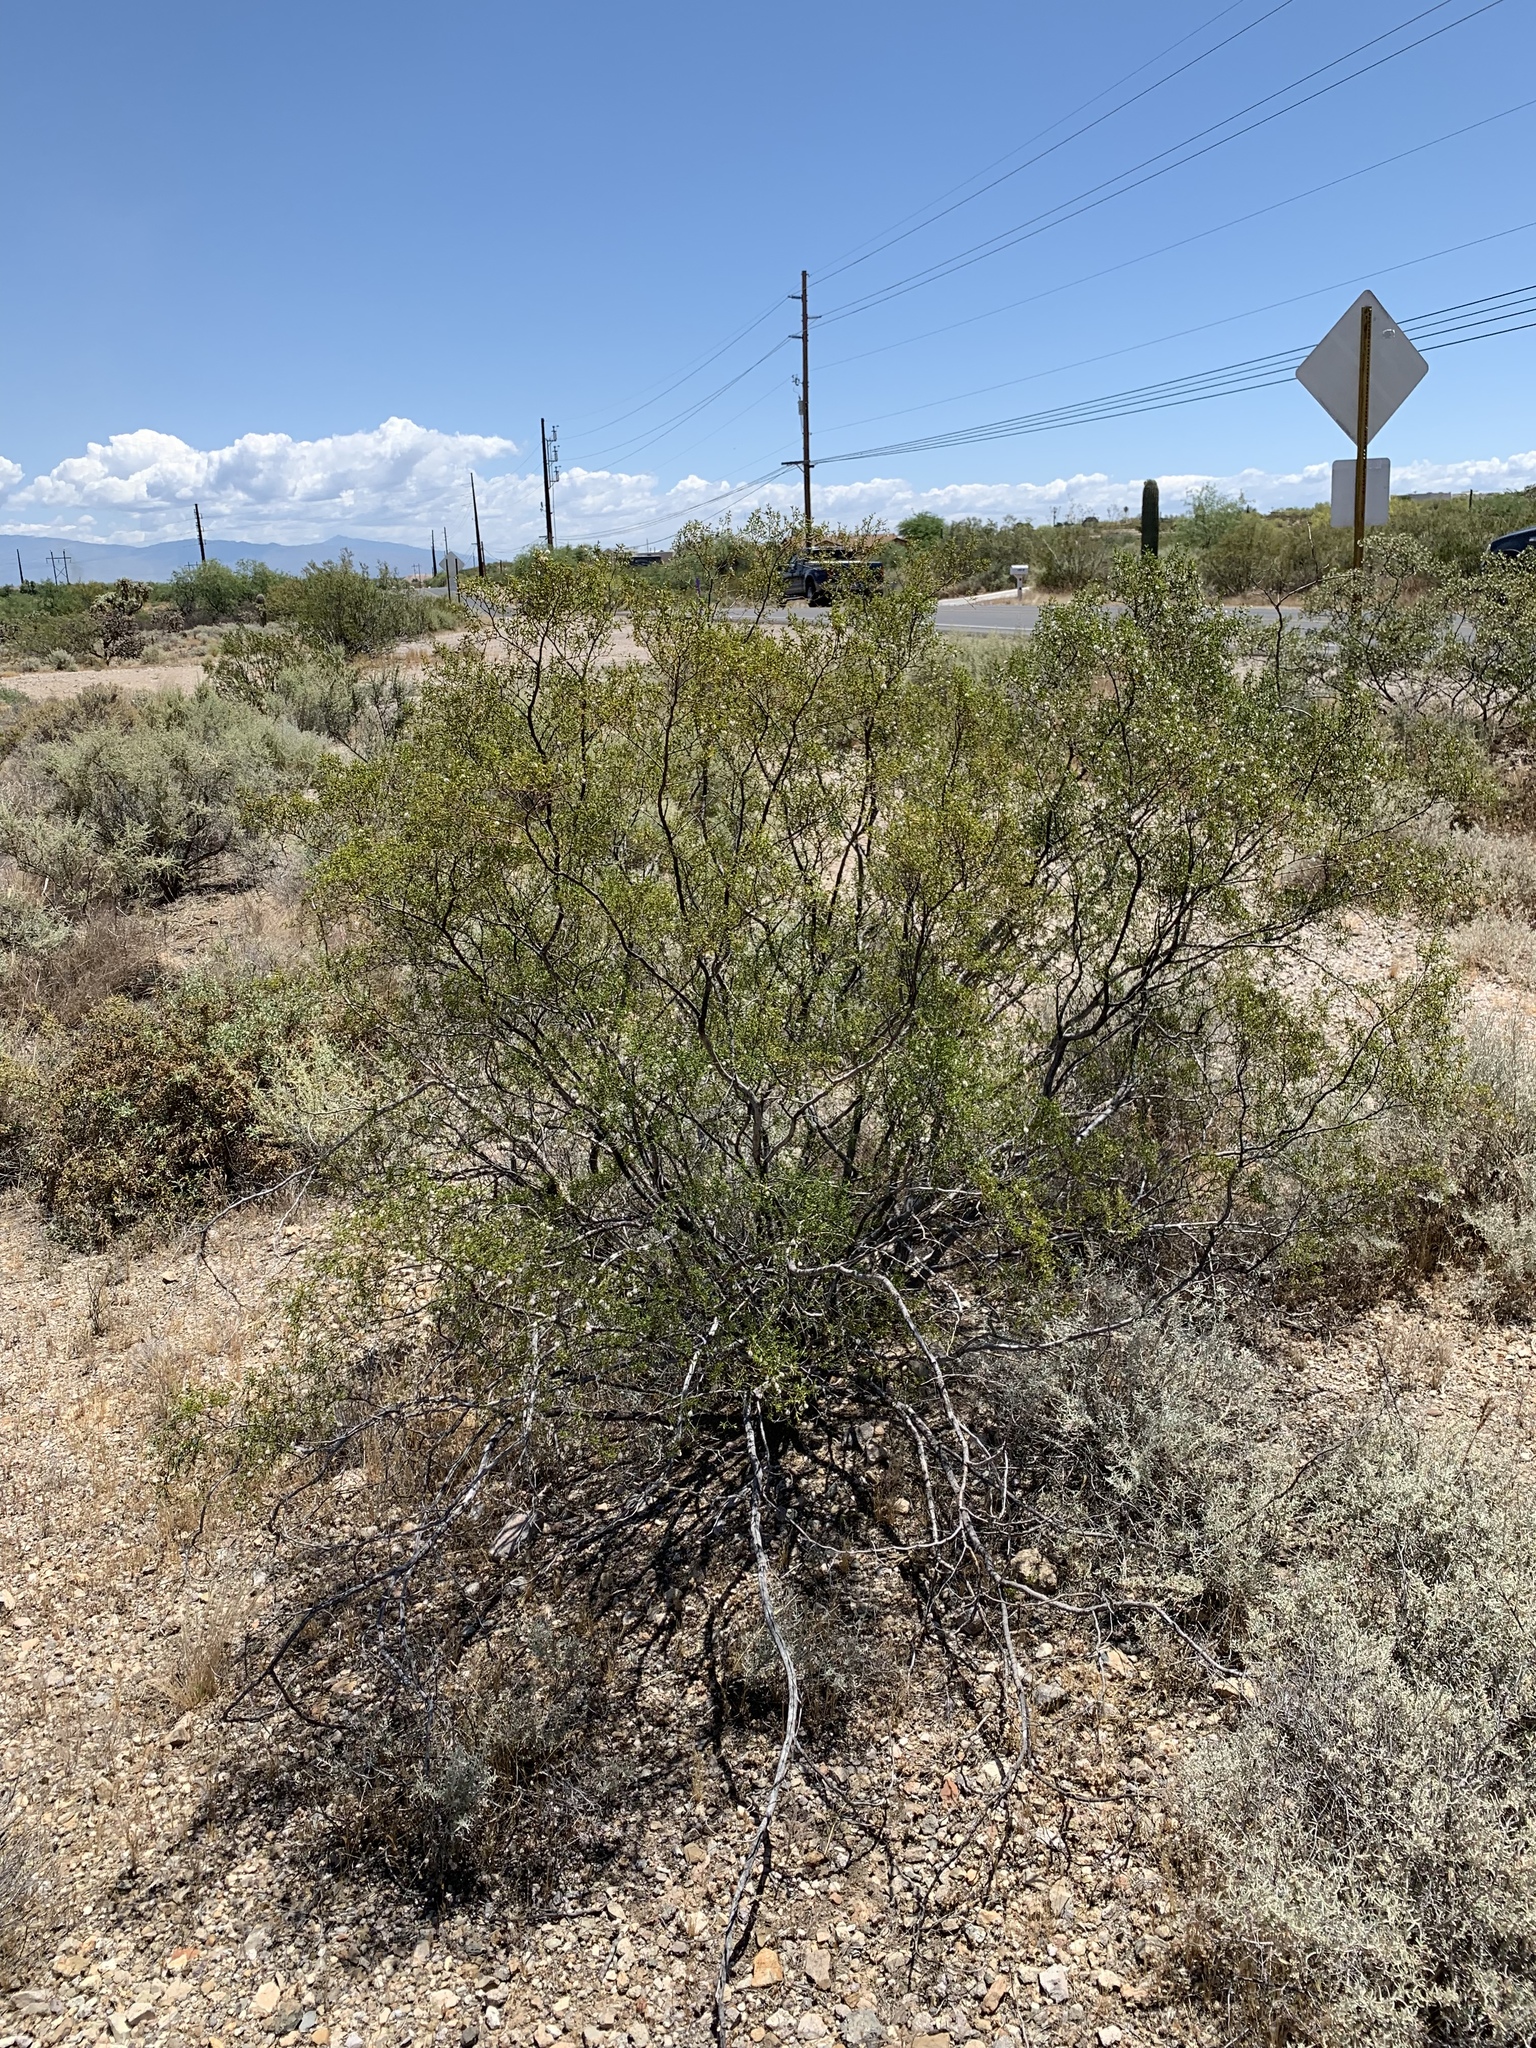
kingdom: Plantae
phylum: Tracheophyta
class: Magnoliopsida
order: Zygophyllales
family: Zygophyllaceae
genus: Larrea
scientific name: Larrea tridentata
